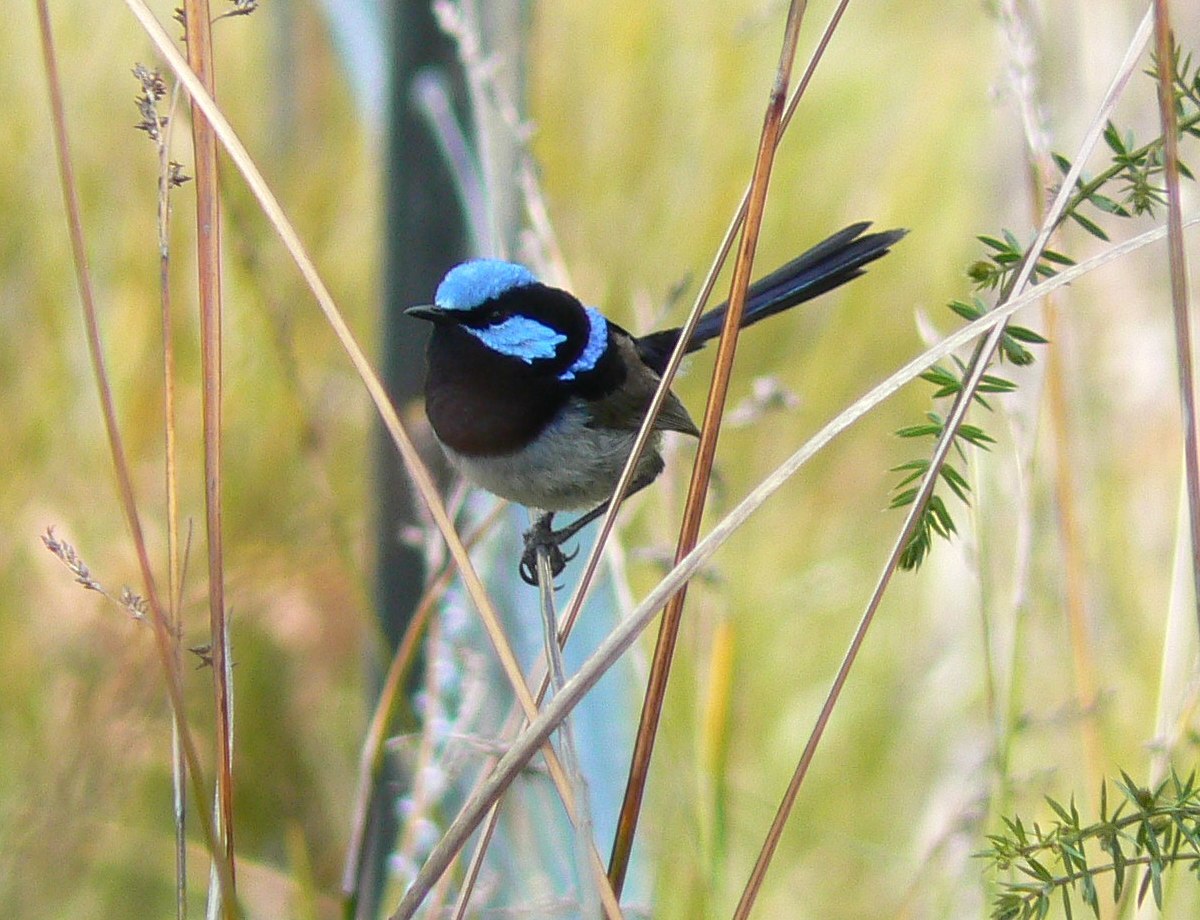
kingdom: Animalia
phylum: Chordata
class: Aves
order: Passeriformes
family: Maluridae
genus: Malurus
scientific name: Malurus cyaneus
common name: Superb fairywren
